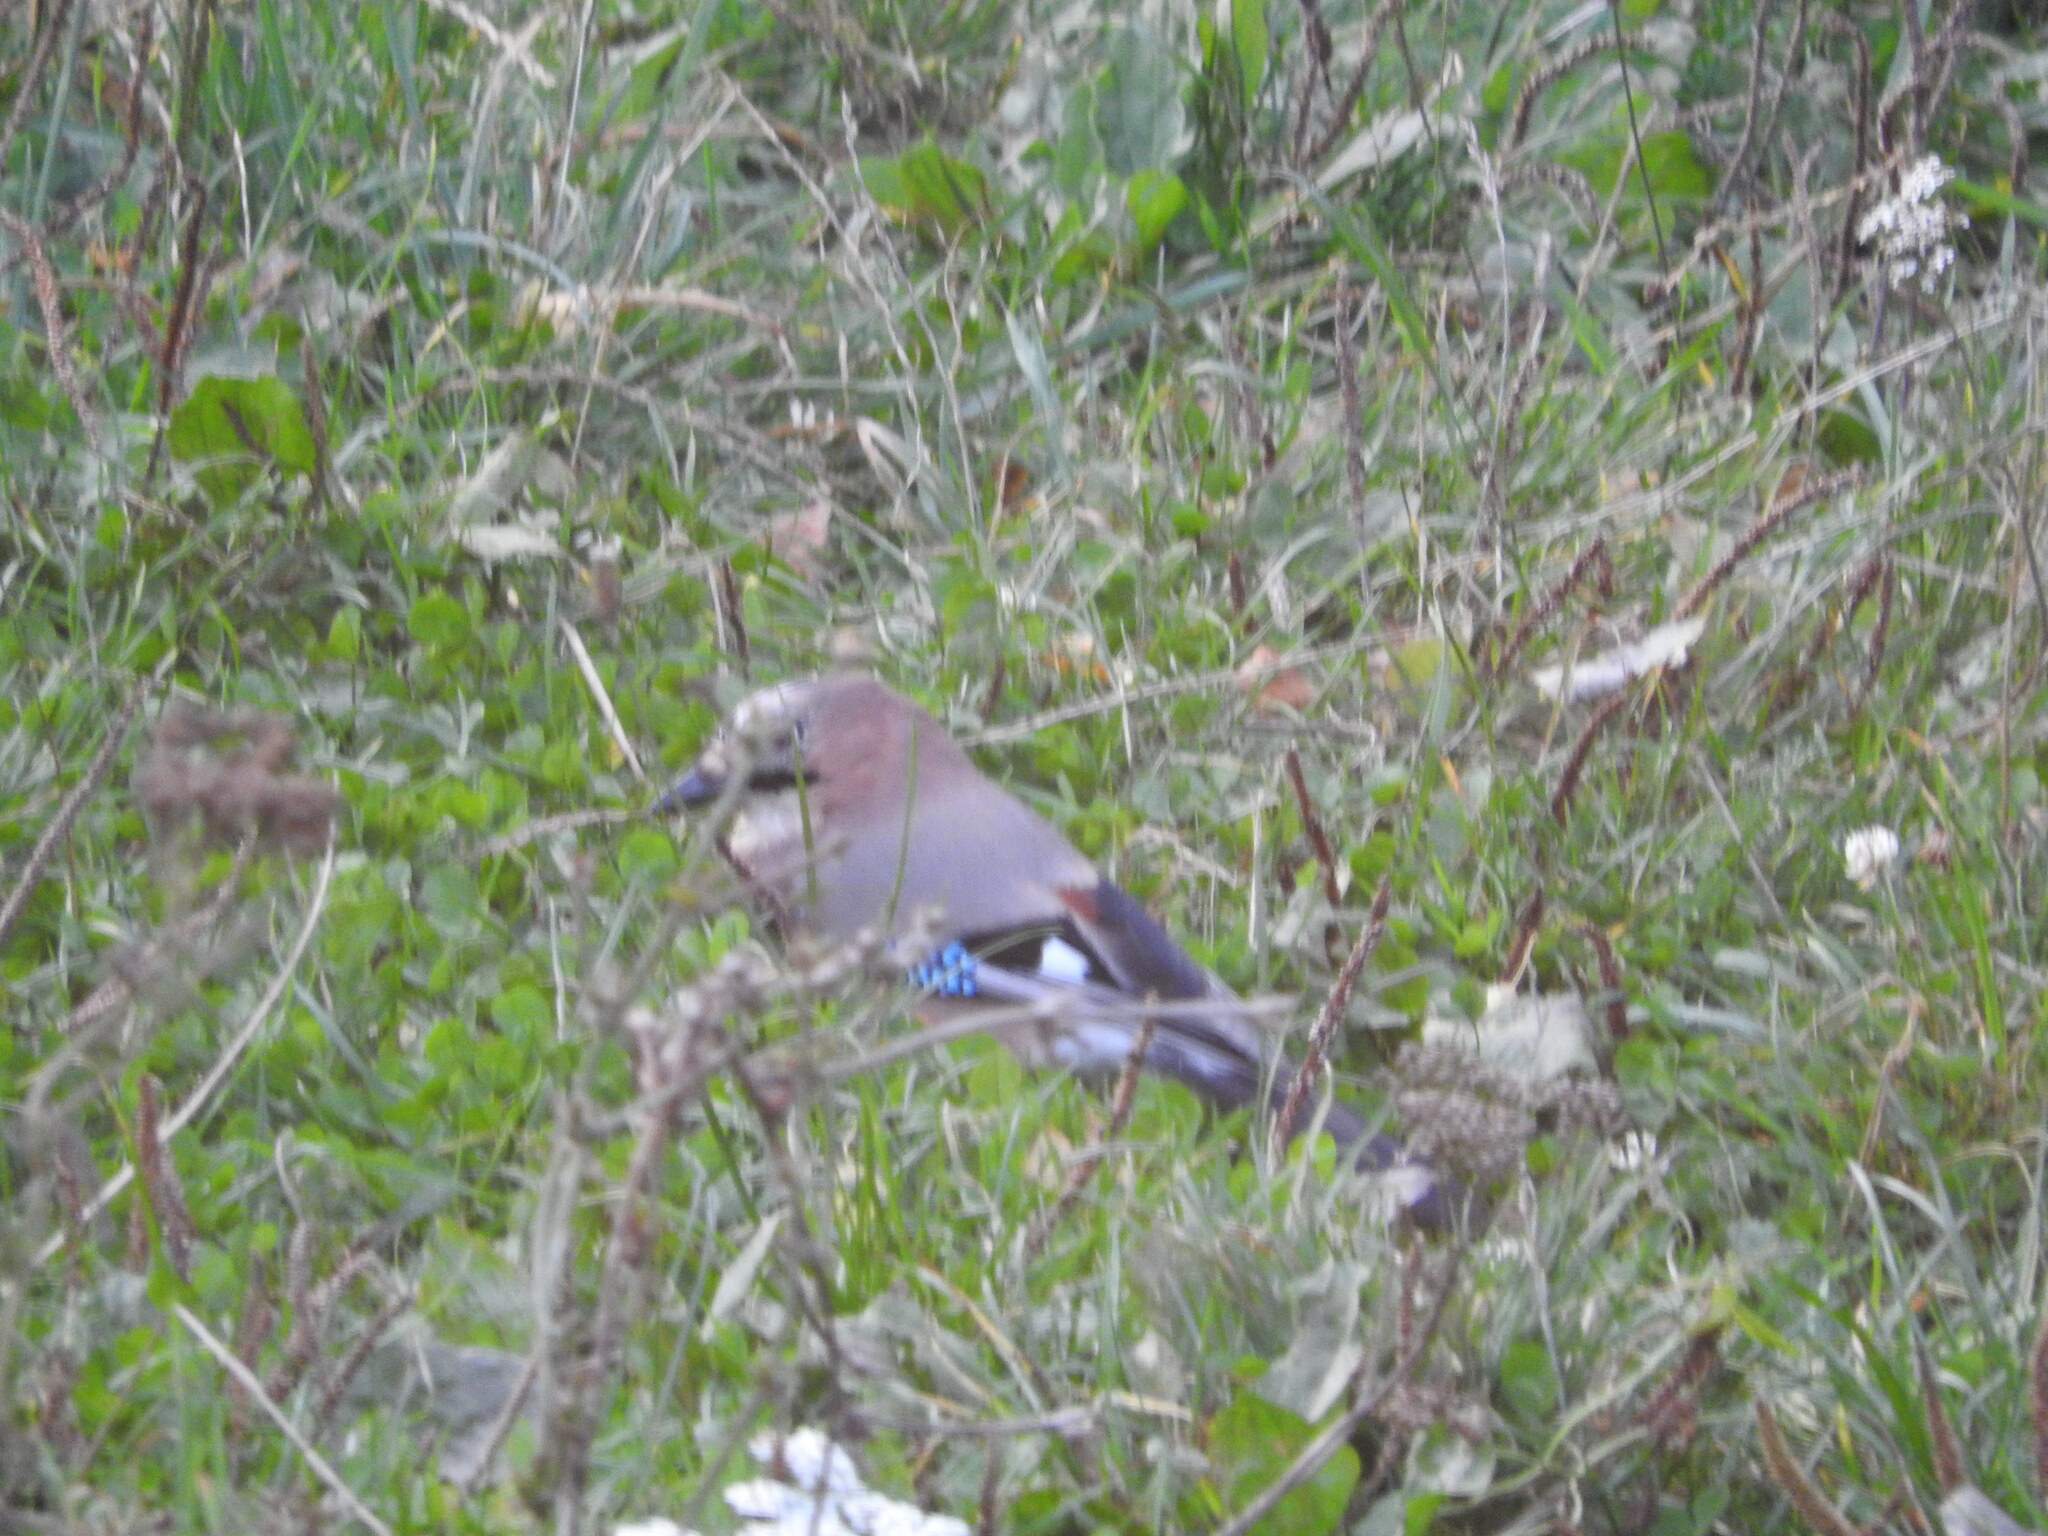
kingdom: Animalia
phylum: Chordata
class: Aves
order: Passeriformes
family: Corvidae
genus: Garrulus
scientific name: Garrulus glandarius
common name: Eurasian jay
